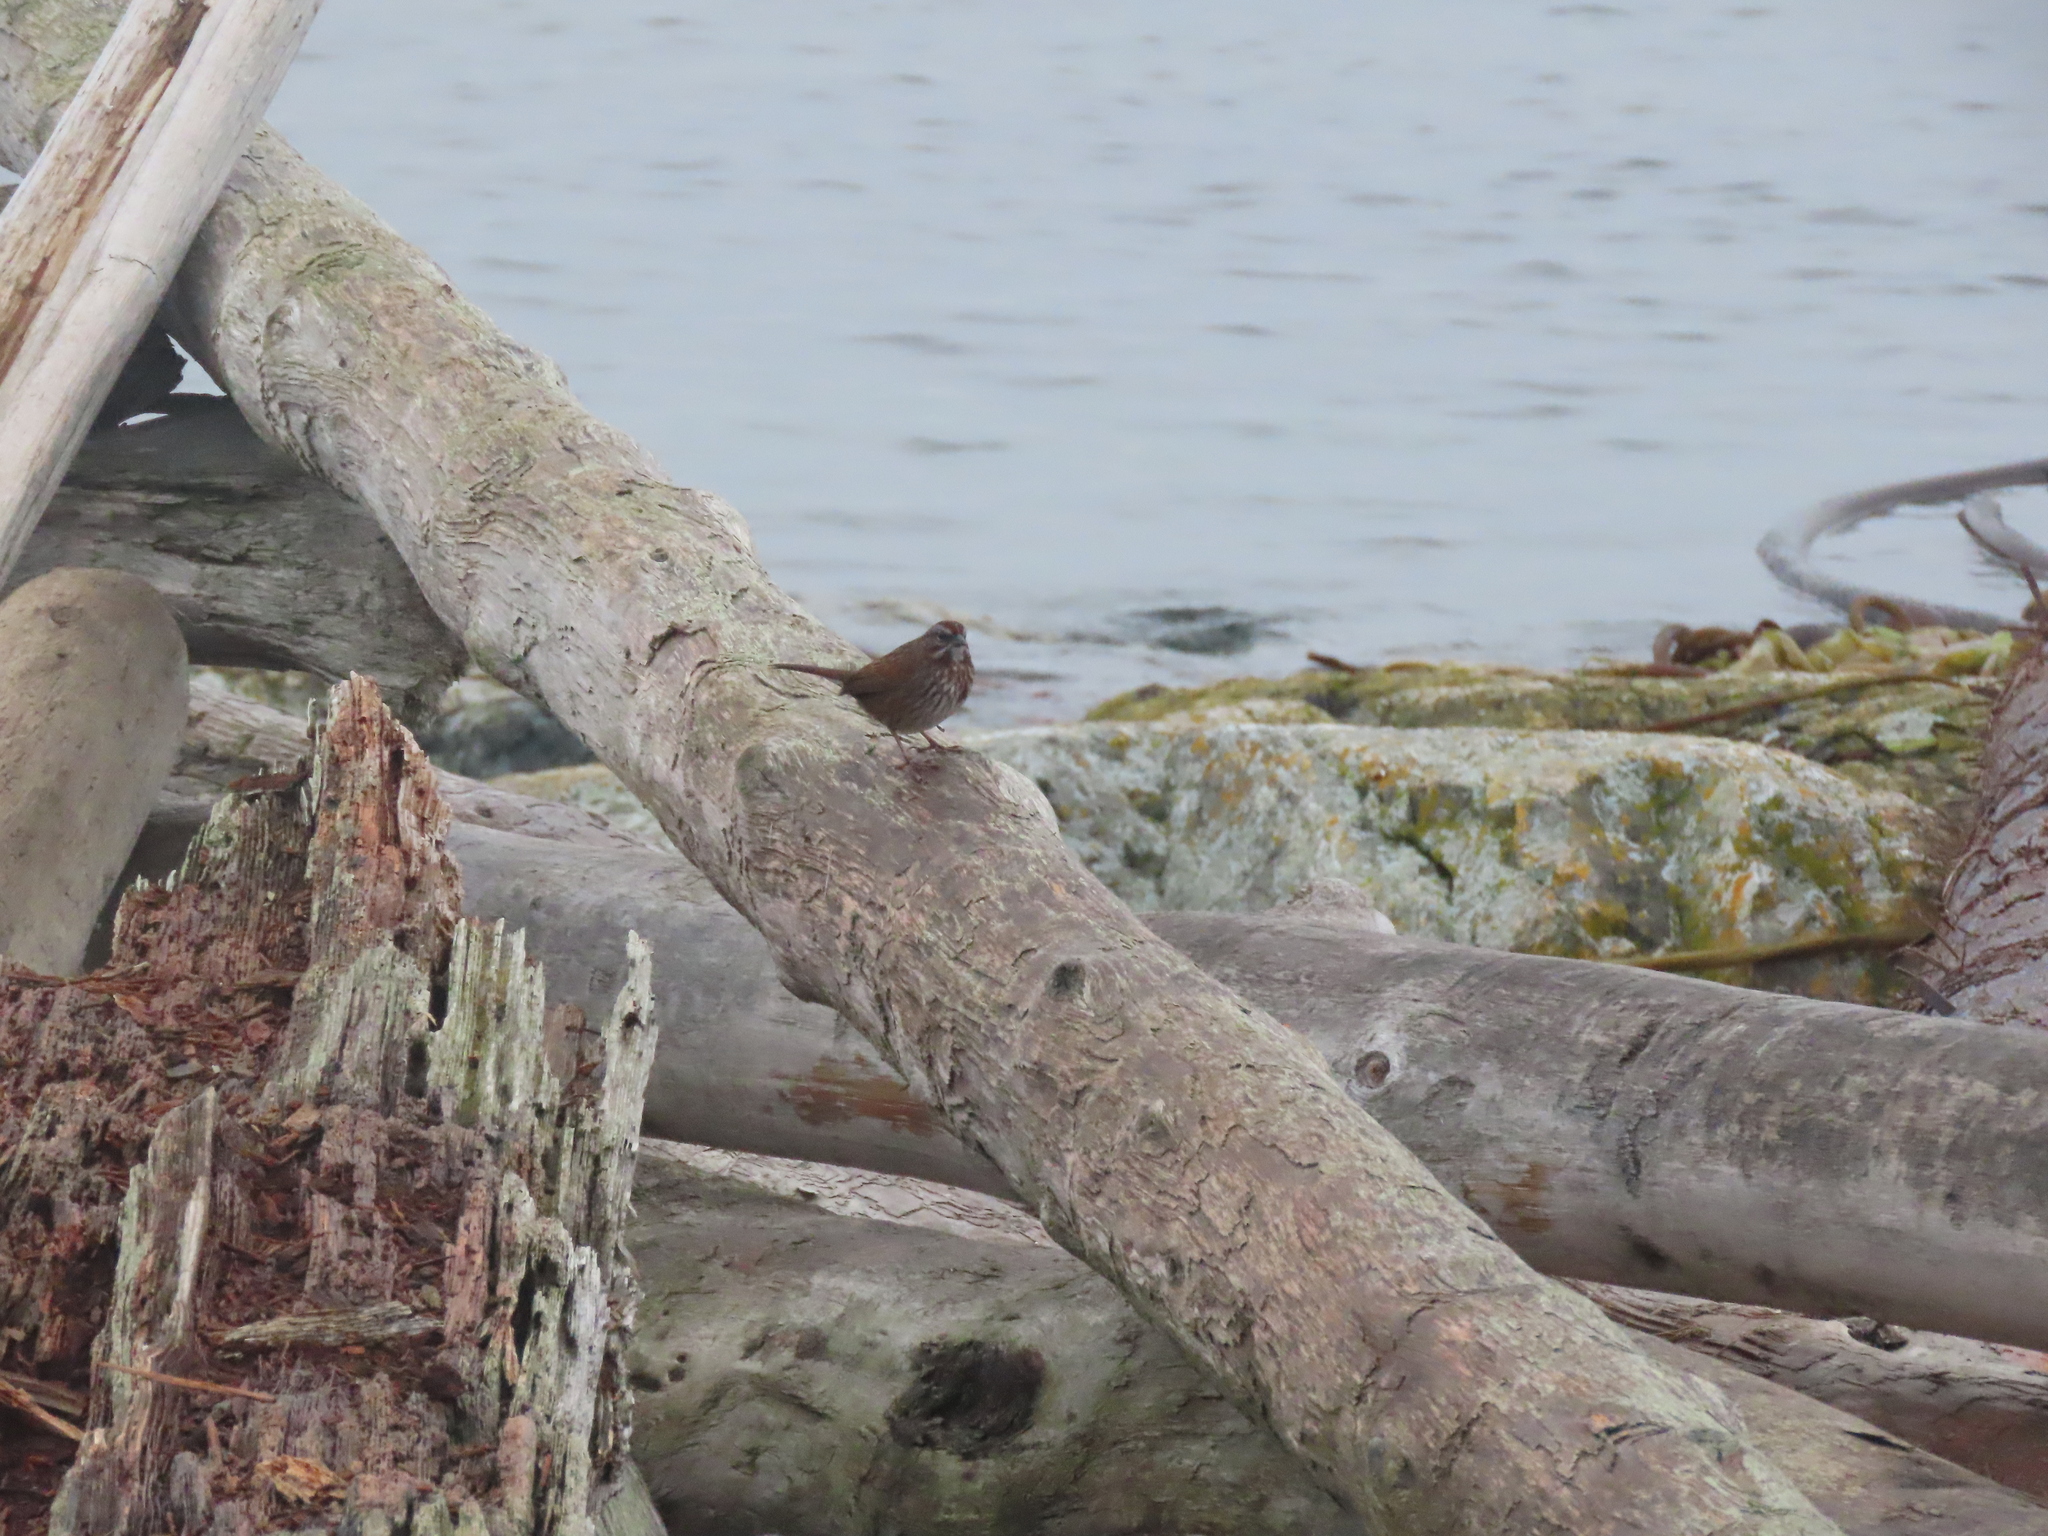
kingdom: Animalia
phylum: Chordata
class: Aves
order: Passeriformes
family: Passerellidae
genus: Melospiza
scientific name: Melospiza melodia
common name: Song sparrow
